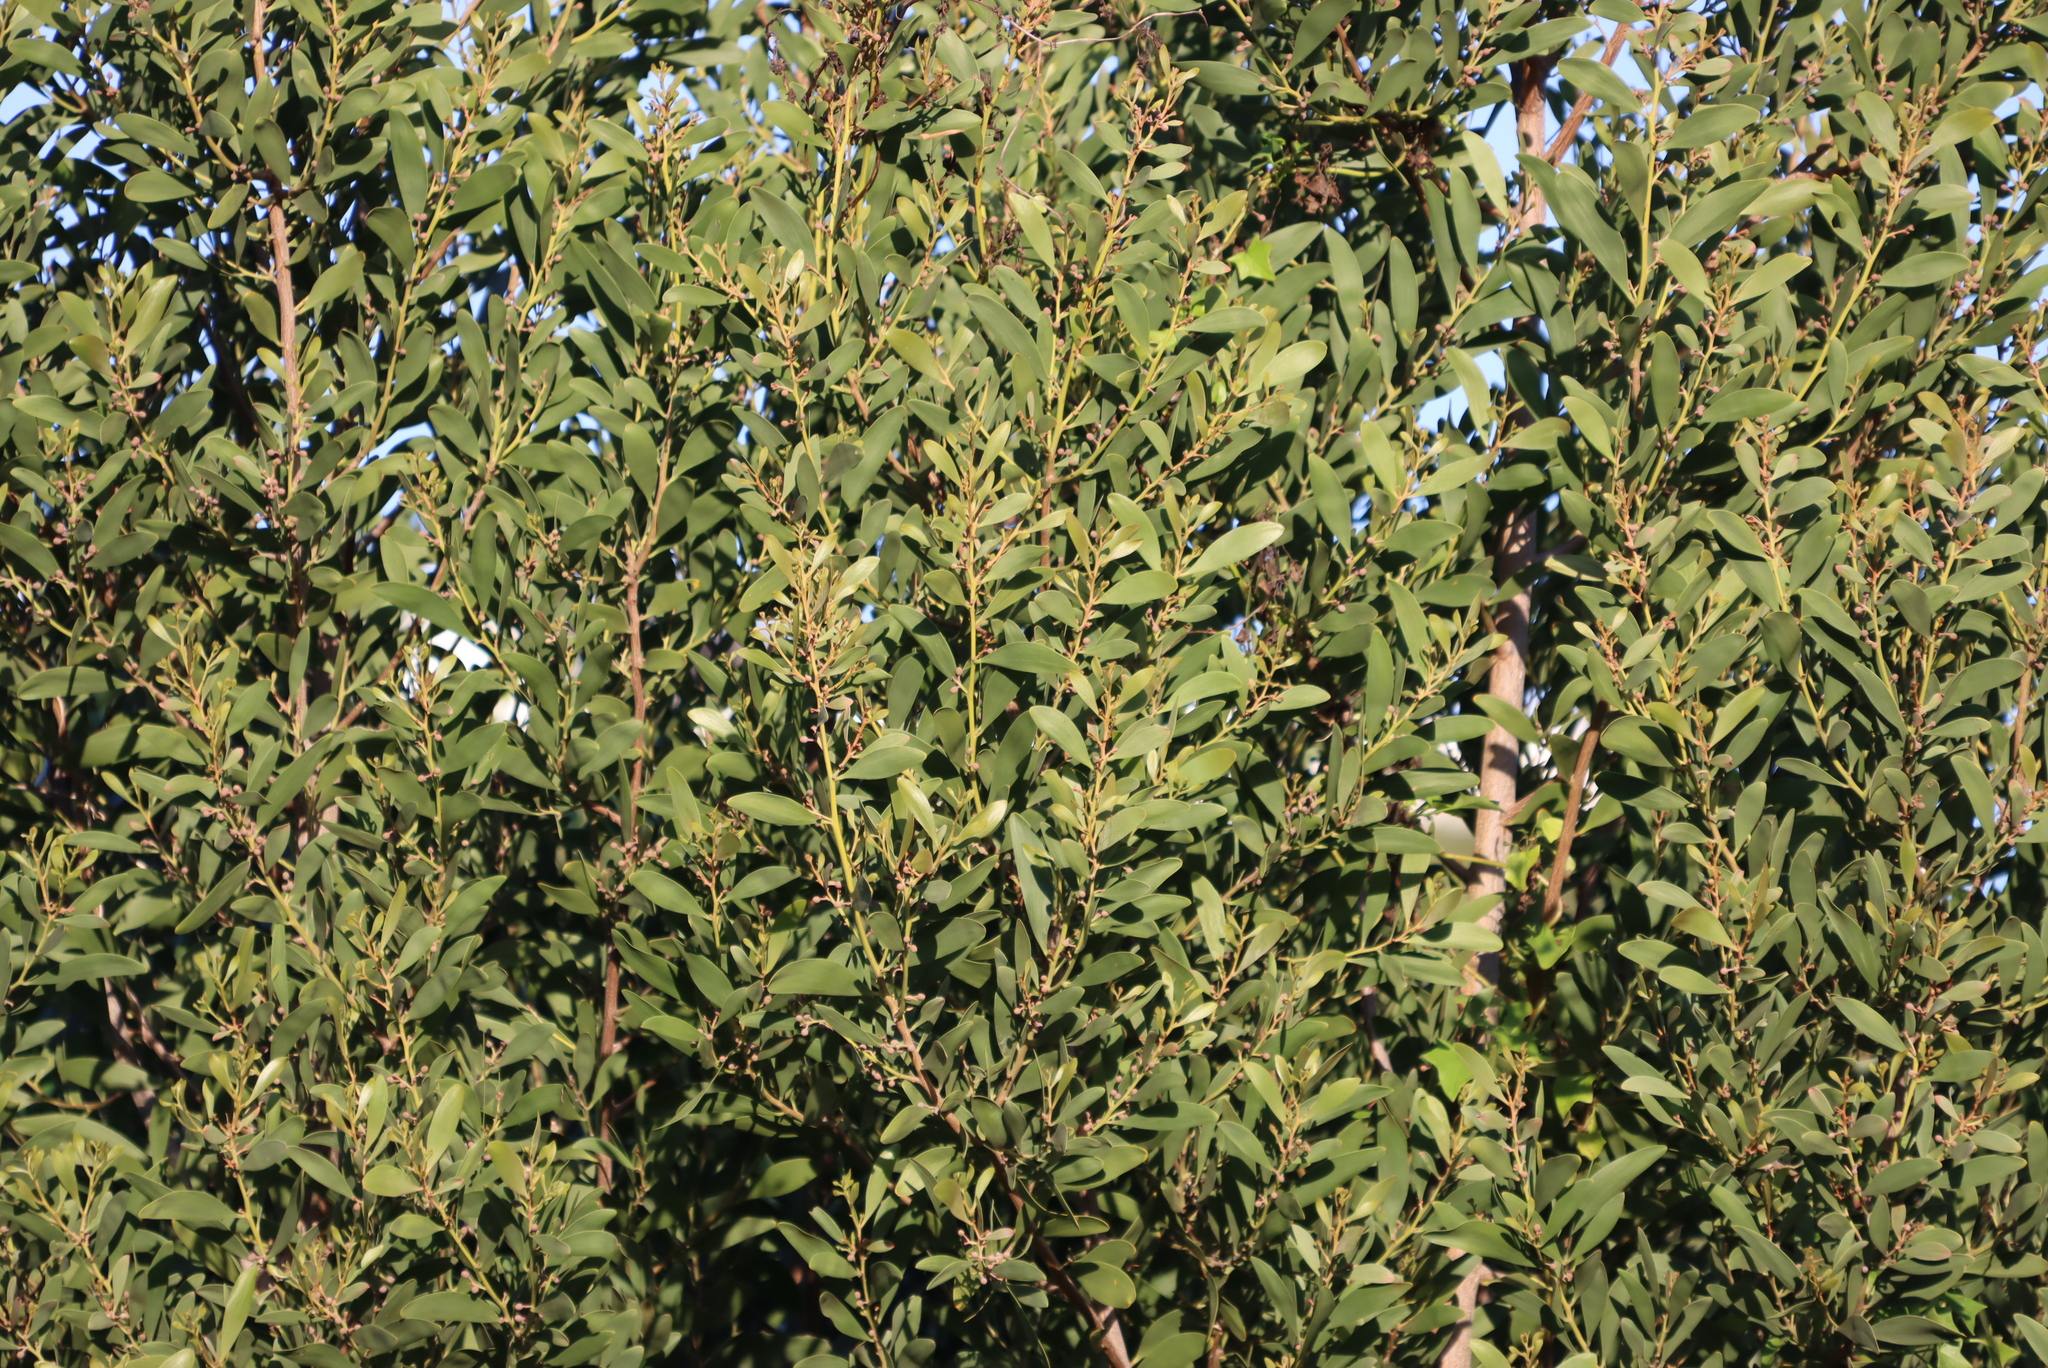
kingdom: Plantae
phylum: Tracheophyta
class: Magnoliopsida
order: Fabales
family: Fabaceae
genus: Acacia
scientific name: Acacia melanoxylon
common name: Blackwood
